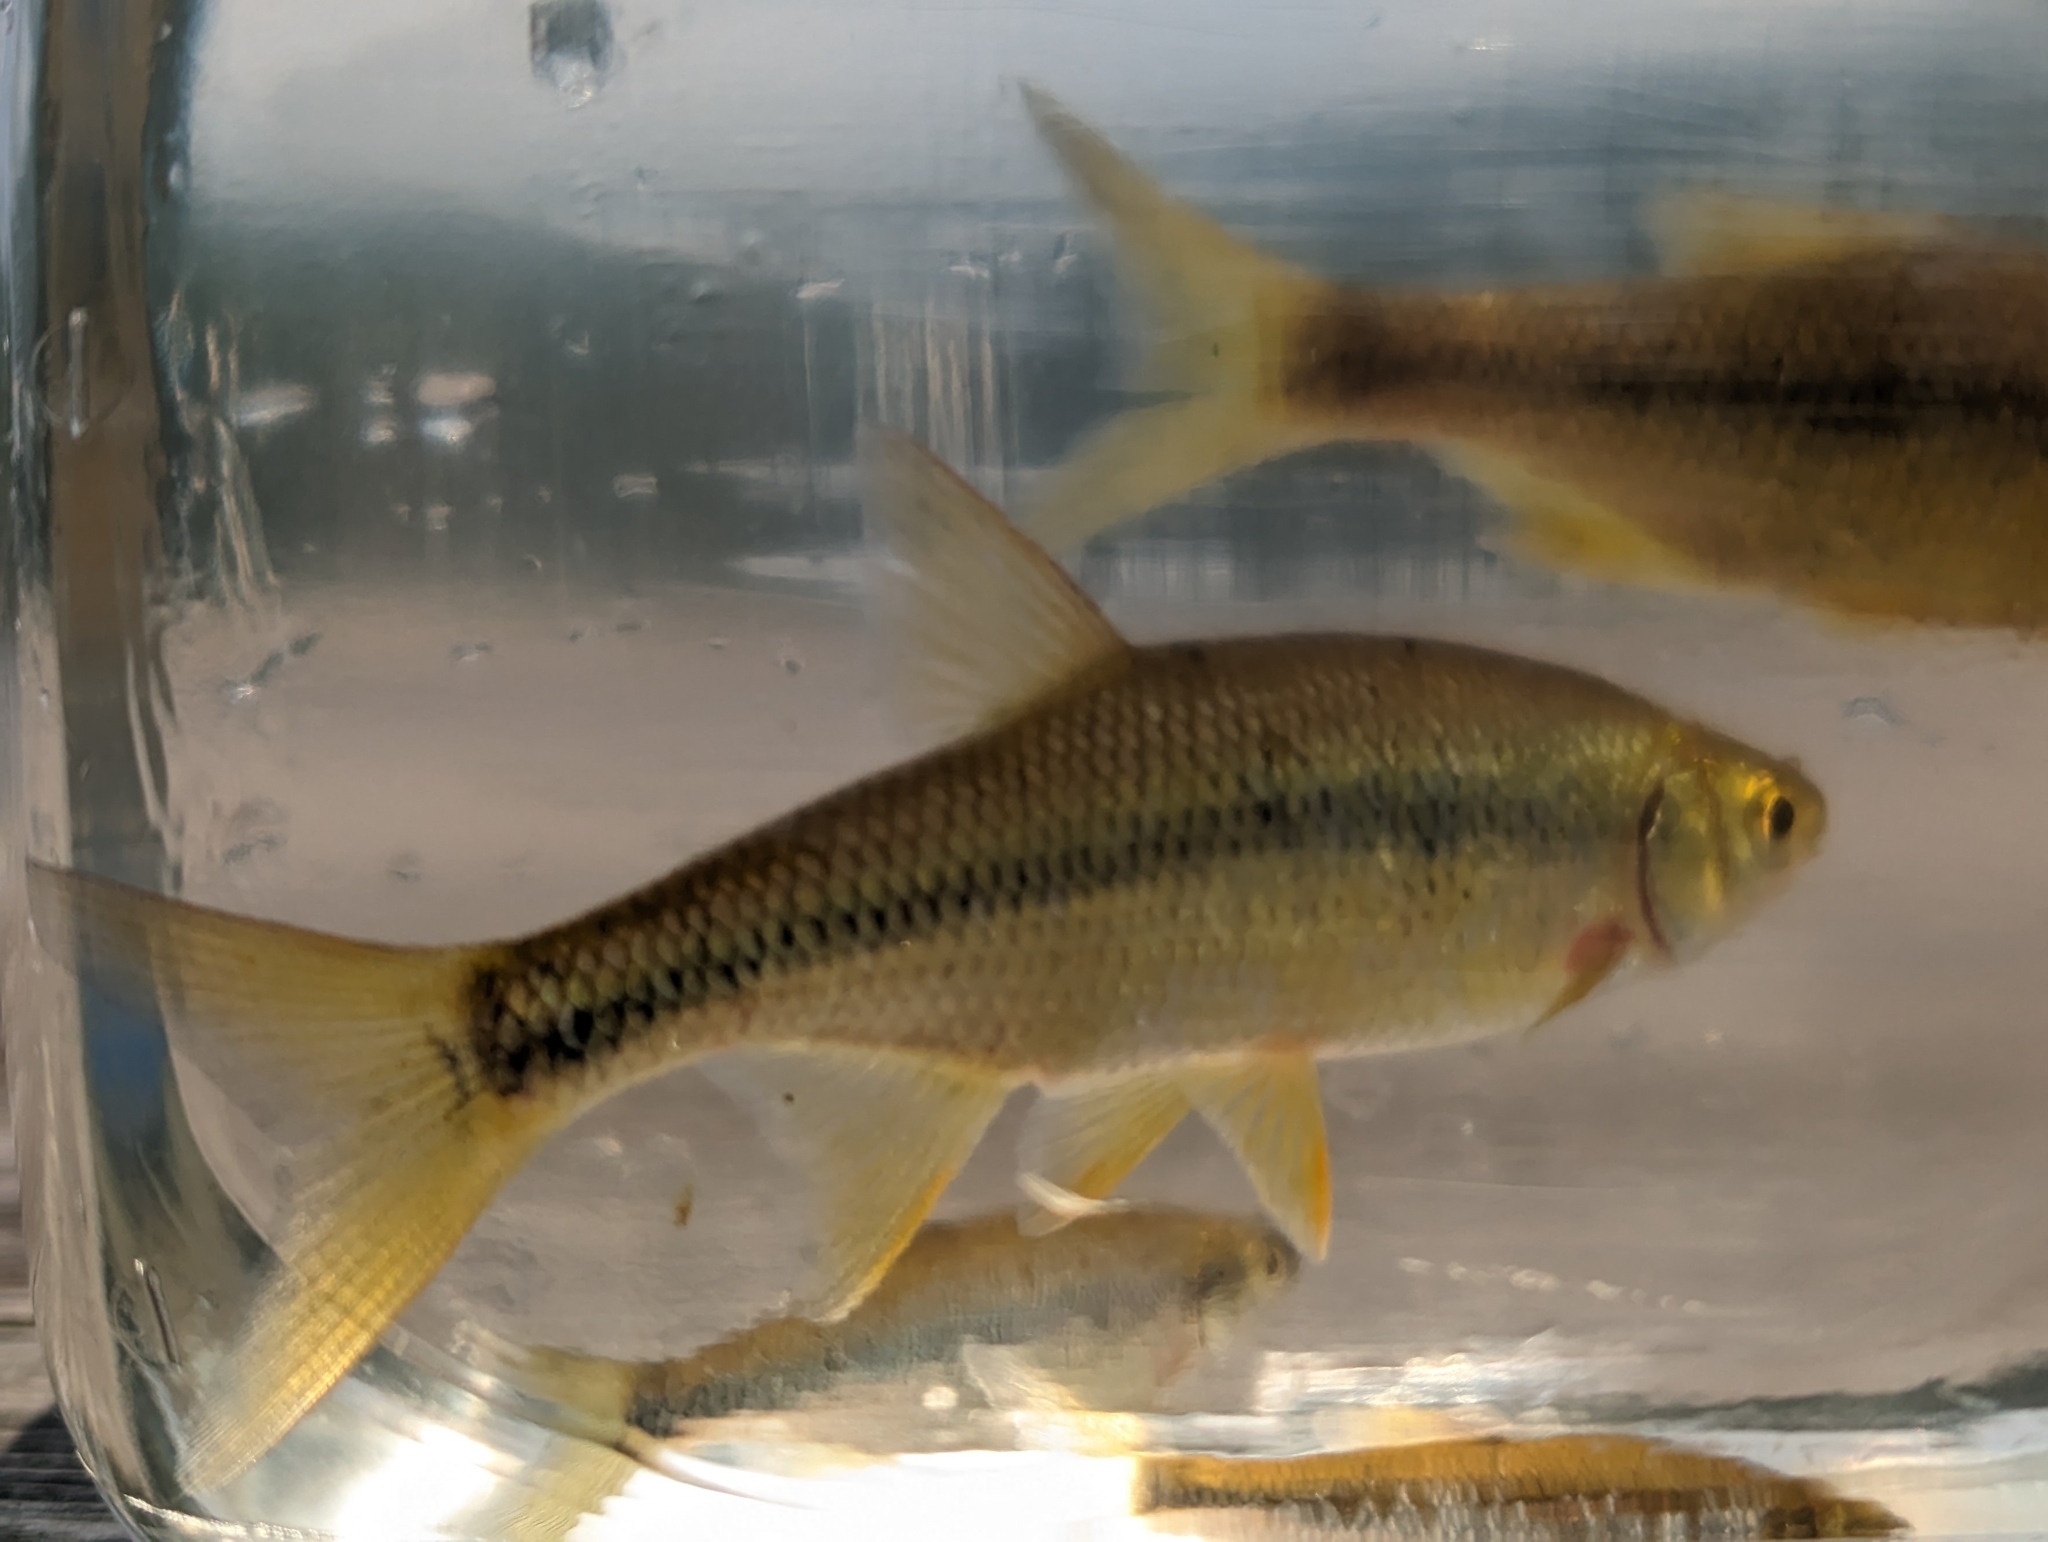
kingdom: Animalia
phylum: Chordata
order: Cypriniformes
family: Cyprinidae
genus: Notemigonus
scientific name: Notemigonus crysoleucas
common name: Golden shiner
